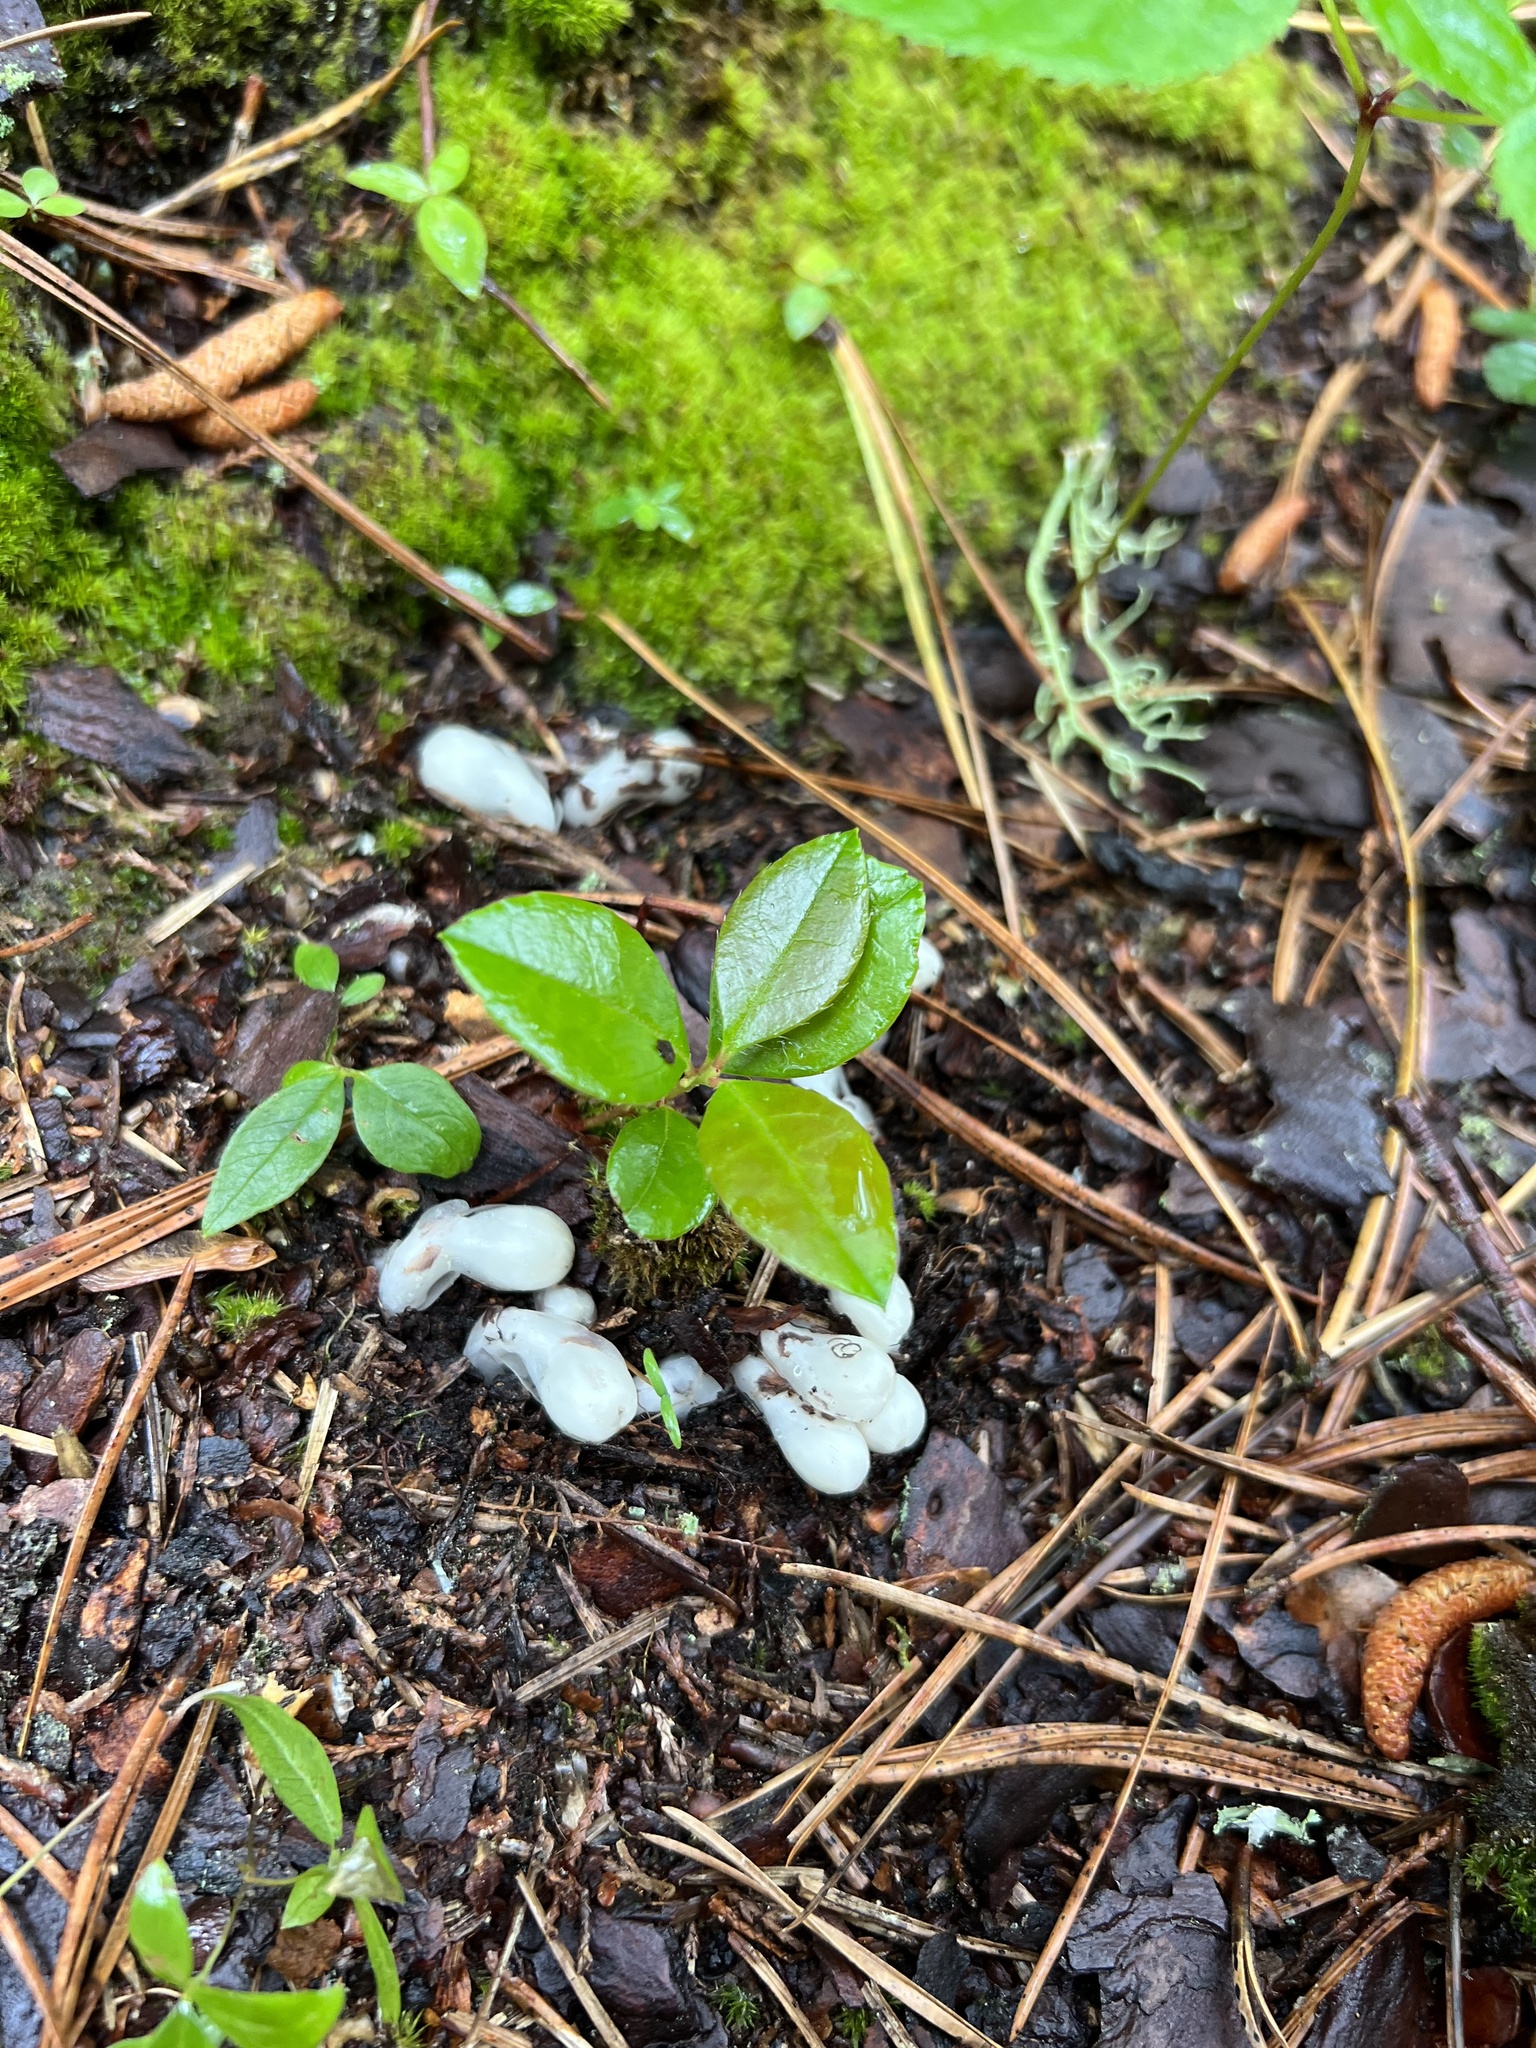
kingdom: Plantae
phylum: Tracheophyta
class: Magnoliopsida
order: Ericales
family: Ericaceae
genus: Monotropa
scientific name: Monotropa uniflora
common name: Convulsion root
